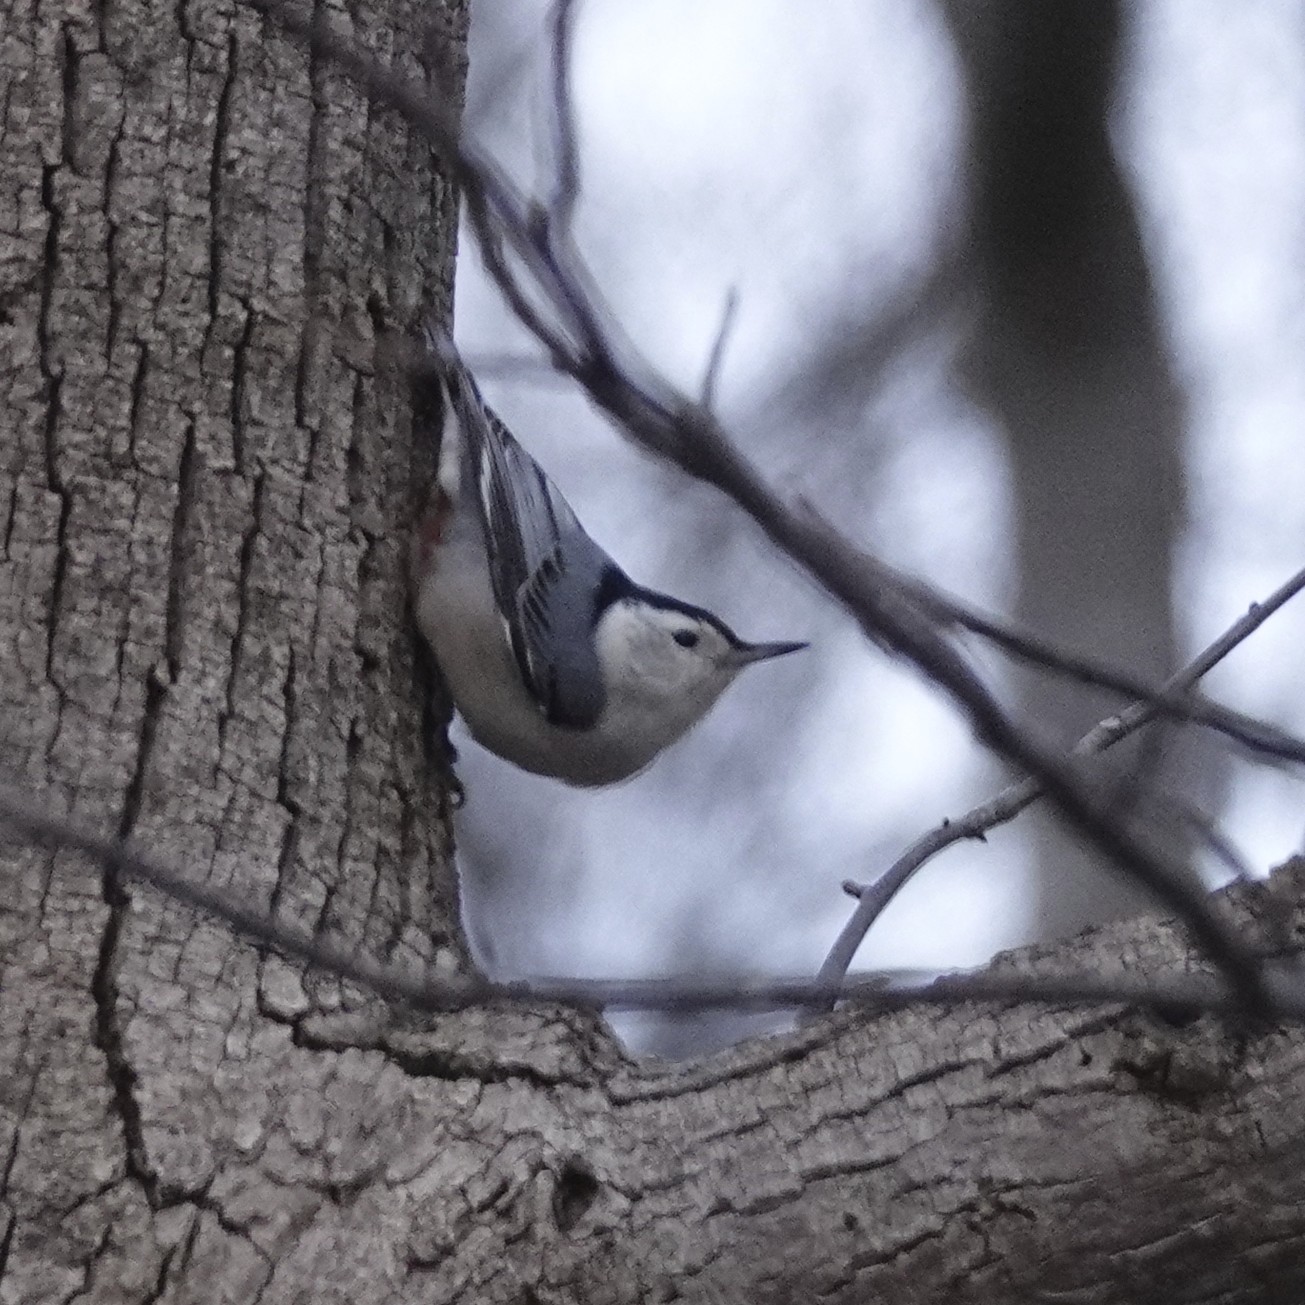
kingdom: Animalia
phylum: Chordata
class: Aves
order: Passeriformes
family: Sittidae
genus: Sitta
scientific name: Sitta carolinensis
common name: White-breasted nuthatch
